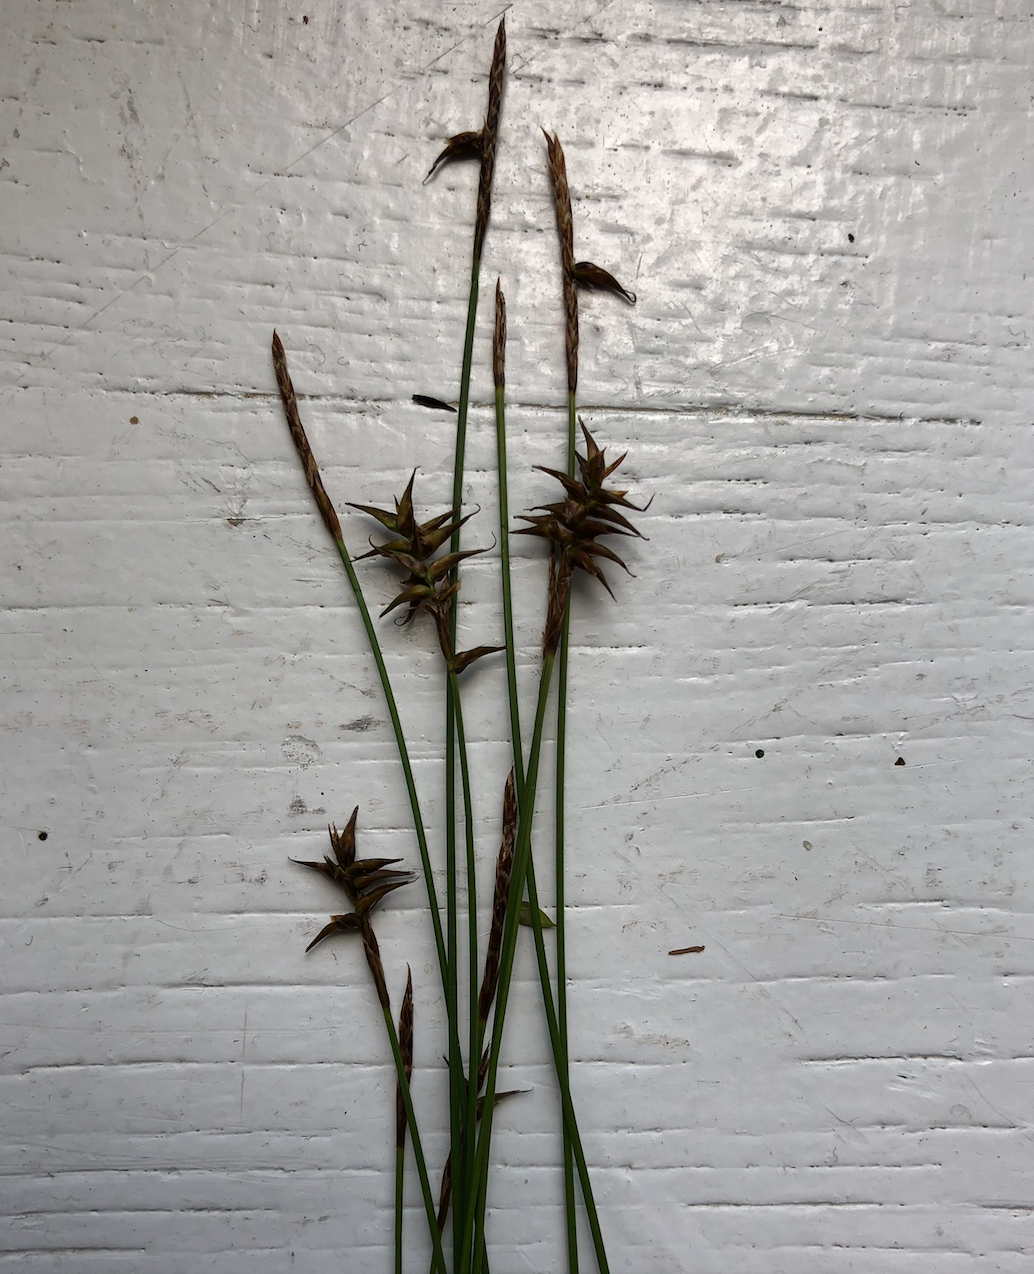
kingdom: Plantae
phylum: Tracheophyta
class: Liliopsida
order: Poales
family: Cyperaceae
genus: Carex
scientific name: Carex davalliana
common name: Davall's sedge
